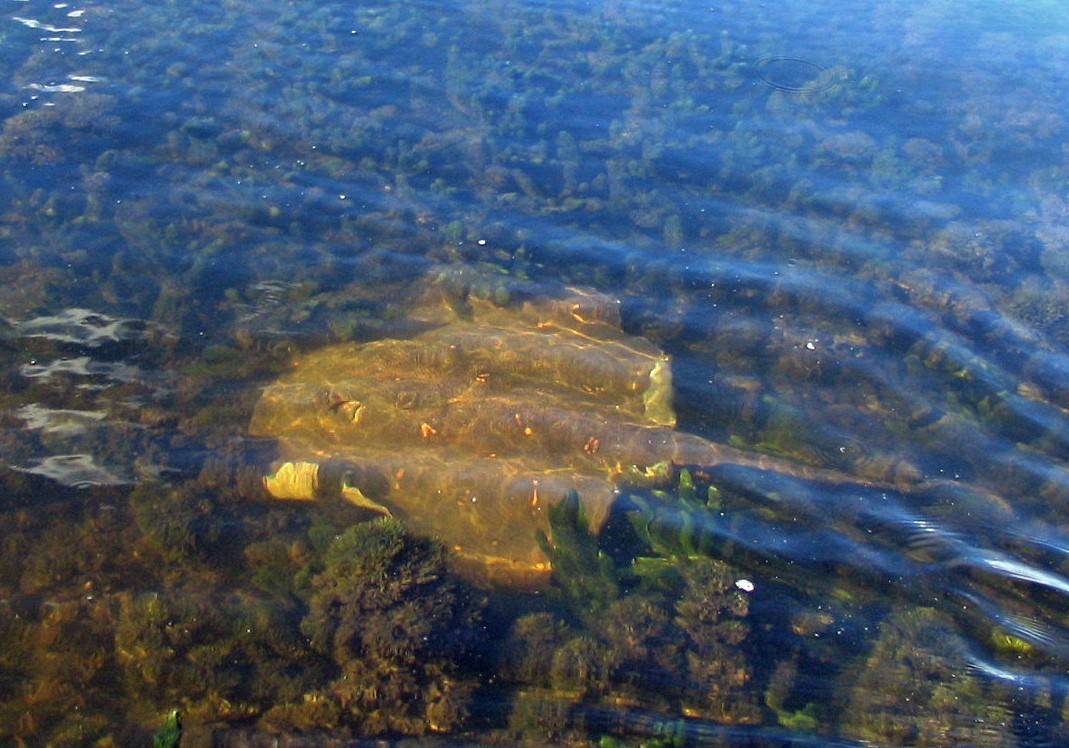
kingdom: Animalia
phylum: Chordata
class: Elasmobranchii
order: Myliobatiformes
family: Potamotrygonidae
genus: Potamotrygon
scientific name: Potamotrygon amandae
